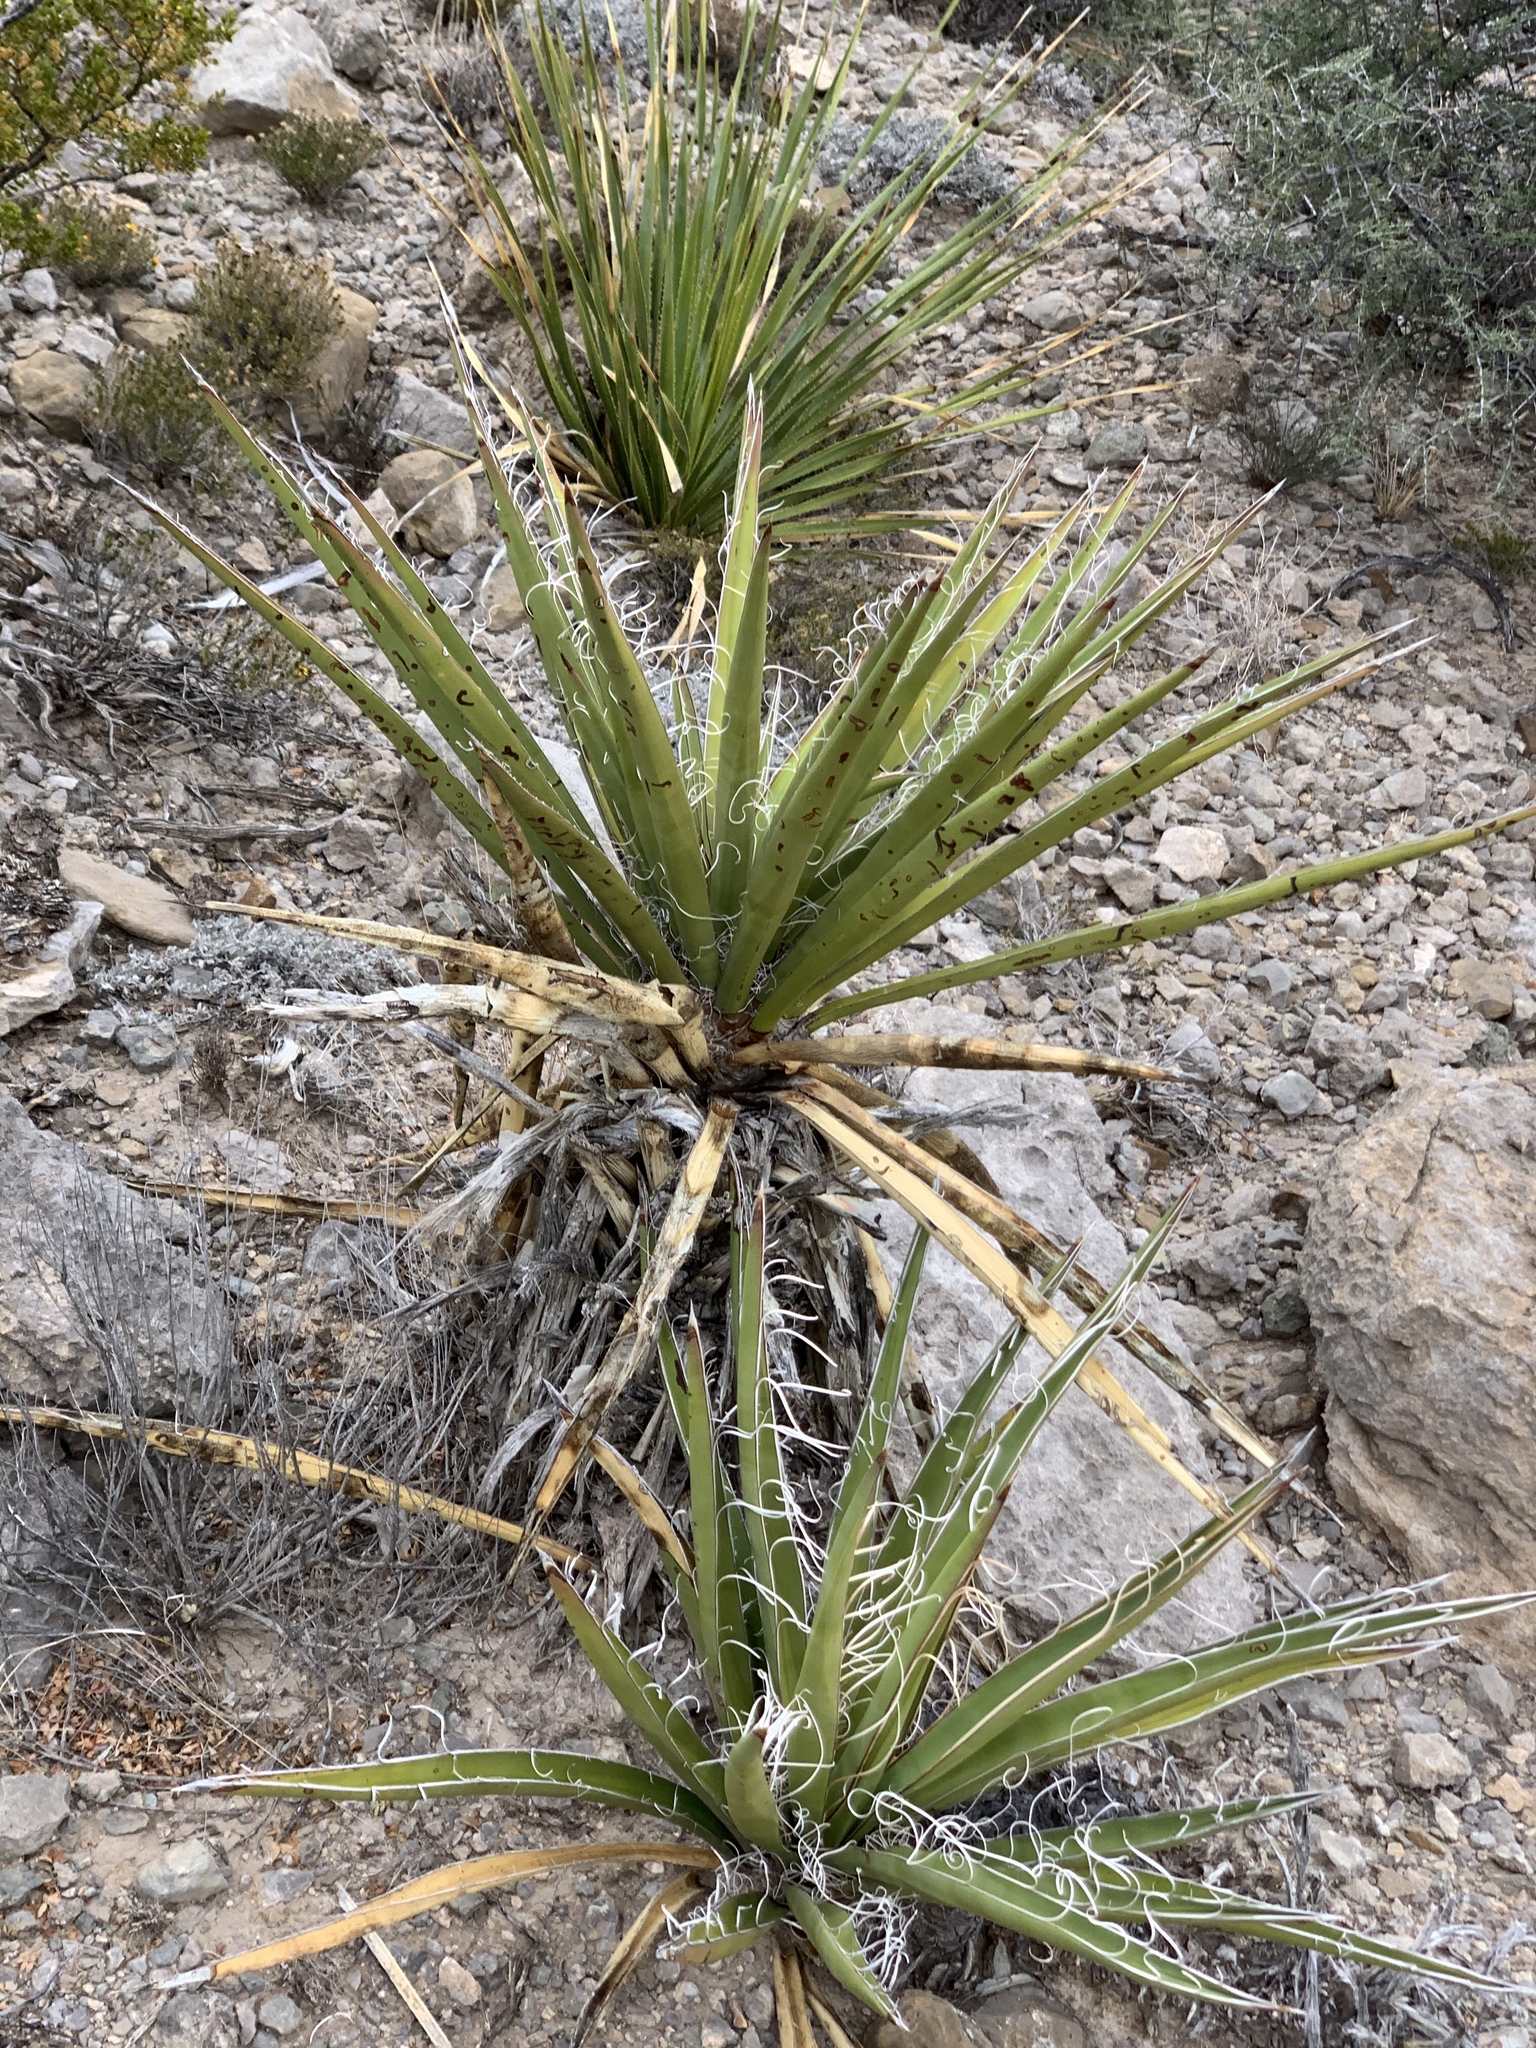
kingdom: Plantae
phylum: Tracheophyta
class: Liliopsida
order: Asparagales
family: Asparagaceae
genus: Yucca
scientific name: Yucca treculiana
